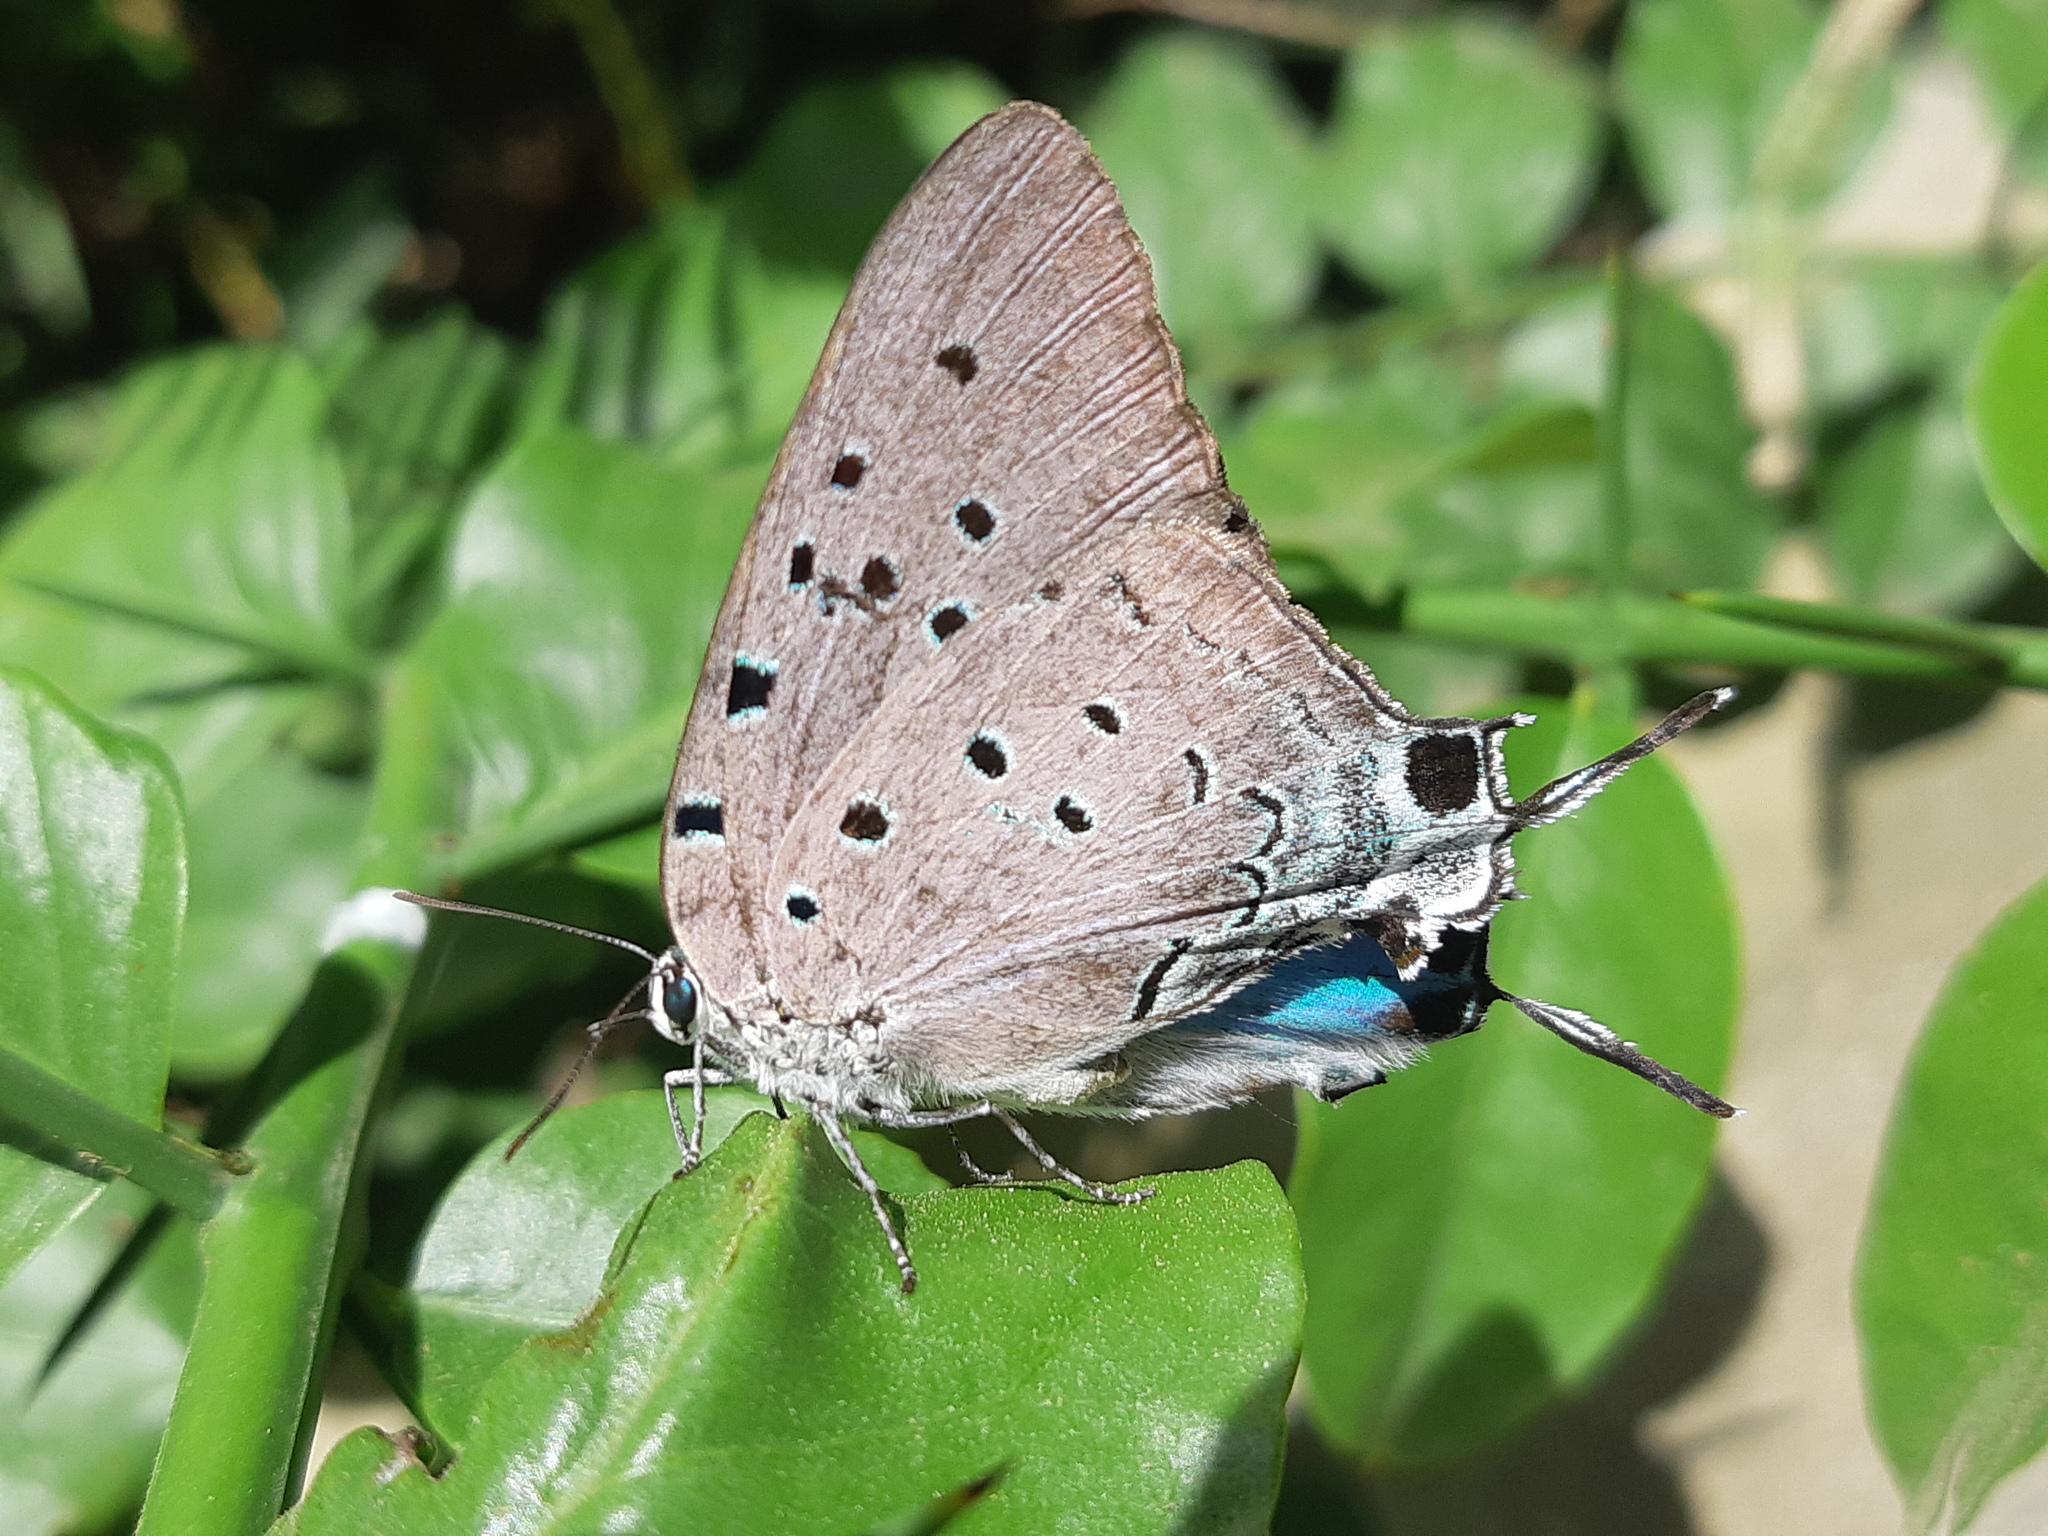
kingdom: Animalia
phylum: Arthropoda
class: Insecta
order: Lepidoptera
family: Lycaenidae
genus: Pseudolycaena
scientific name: Pseudolycaena damo
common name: Sky-blue hairstreak
